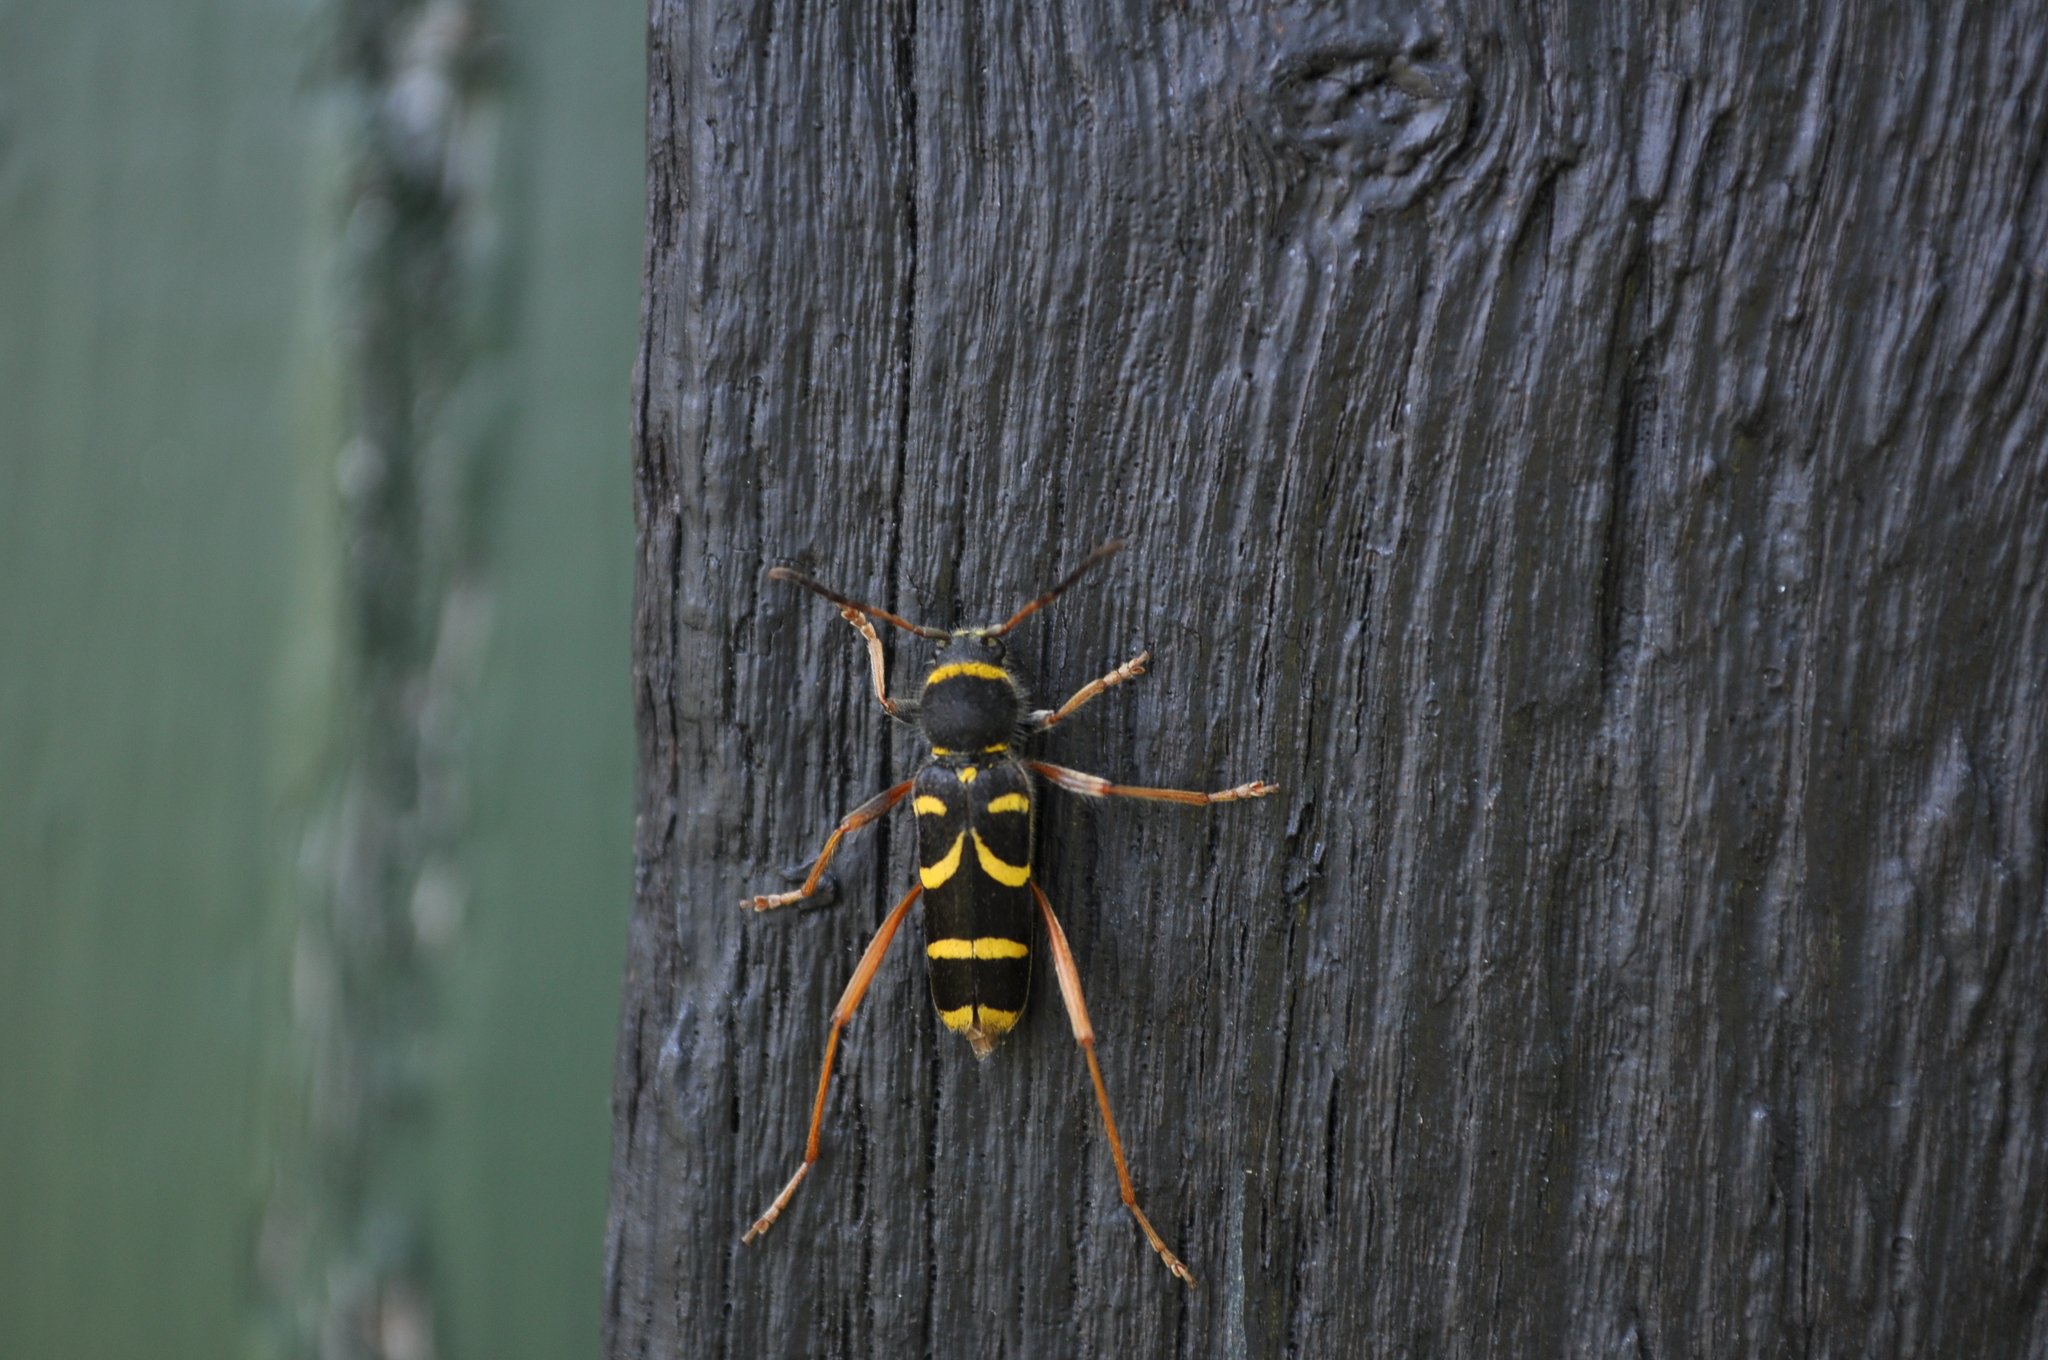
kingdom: Animalia
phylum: Arthropoda
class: Insecta
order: Coleoptera
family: Cerambycidae
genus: Clytus
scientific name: Clytus arietis
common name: Wasp beetle
